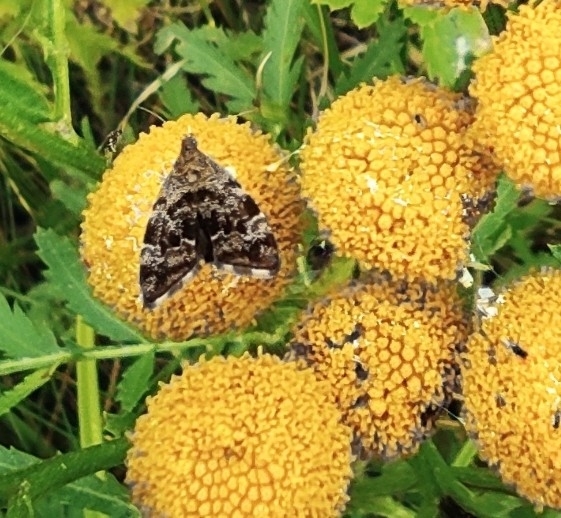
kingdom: Animalia
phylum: Arthropoda
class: Insecta
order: Lepidoptera
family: Choreutidae
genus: Anthophila
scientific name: Anthophila fabriciana
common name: Nettle-tap
